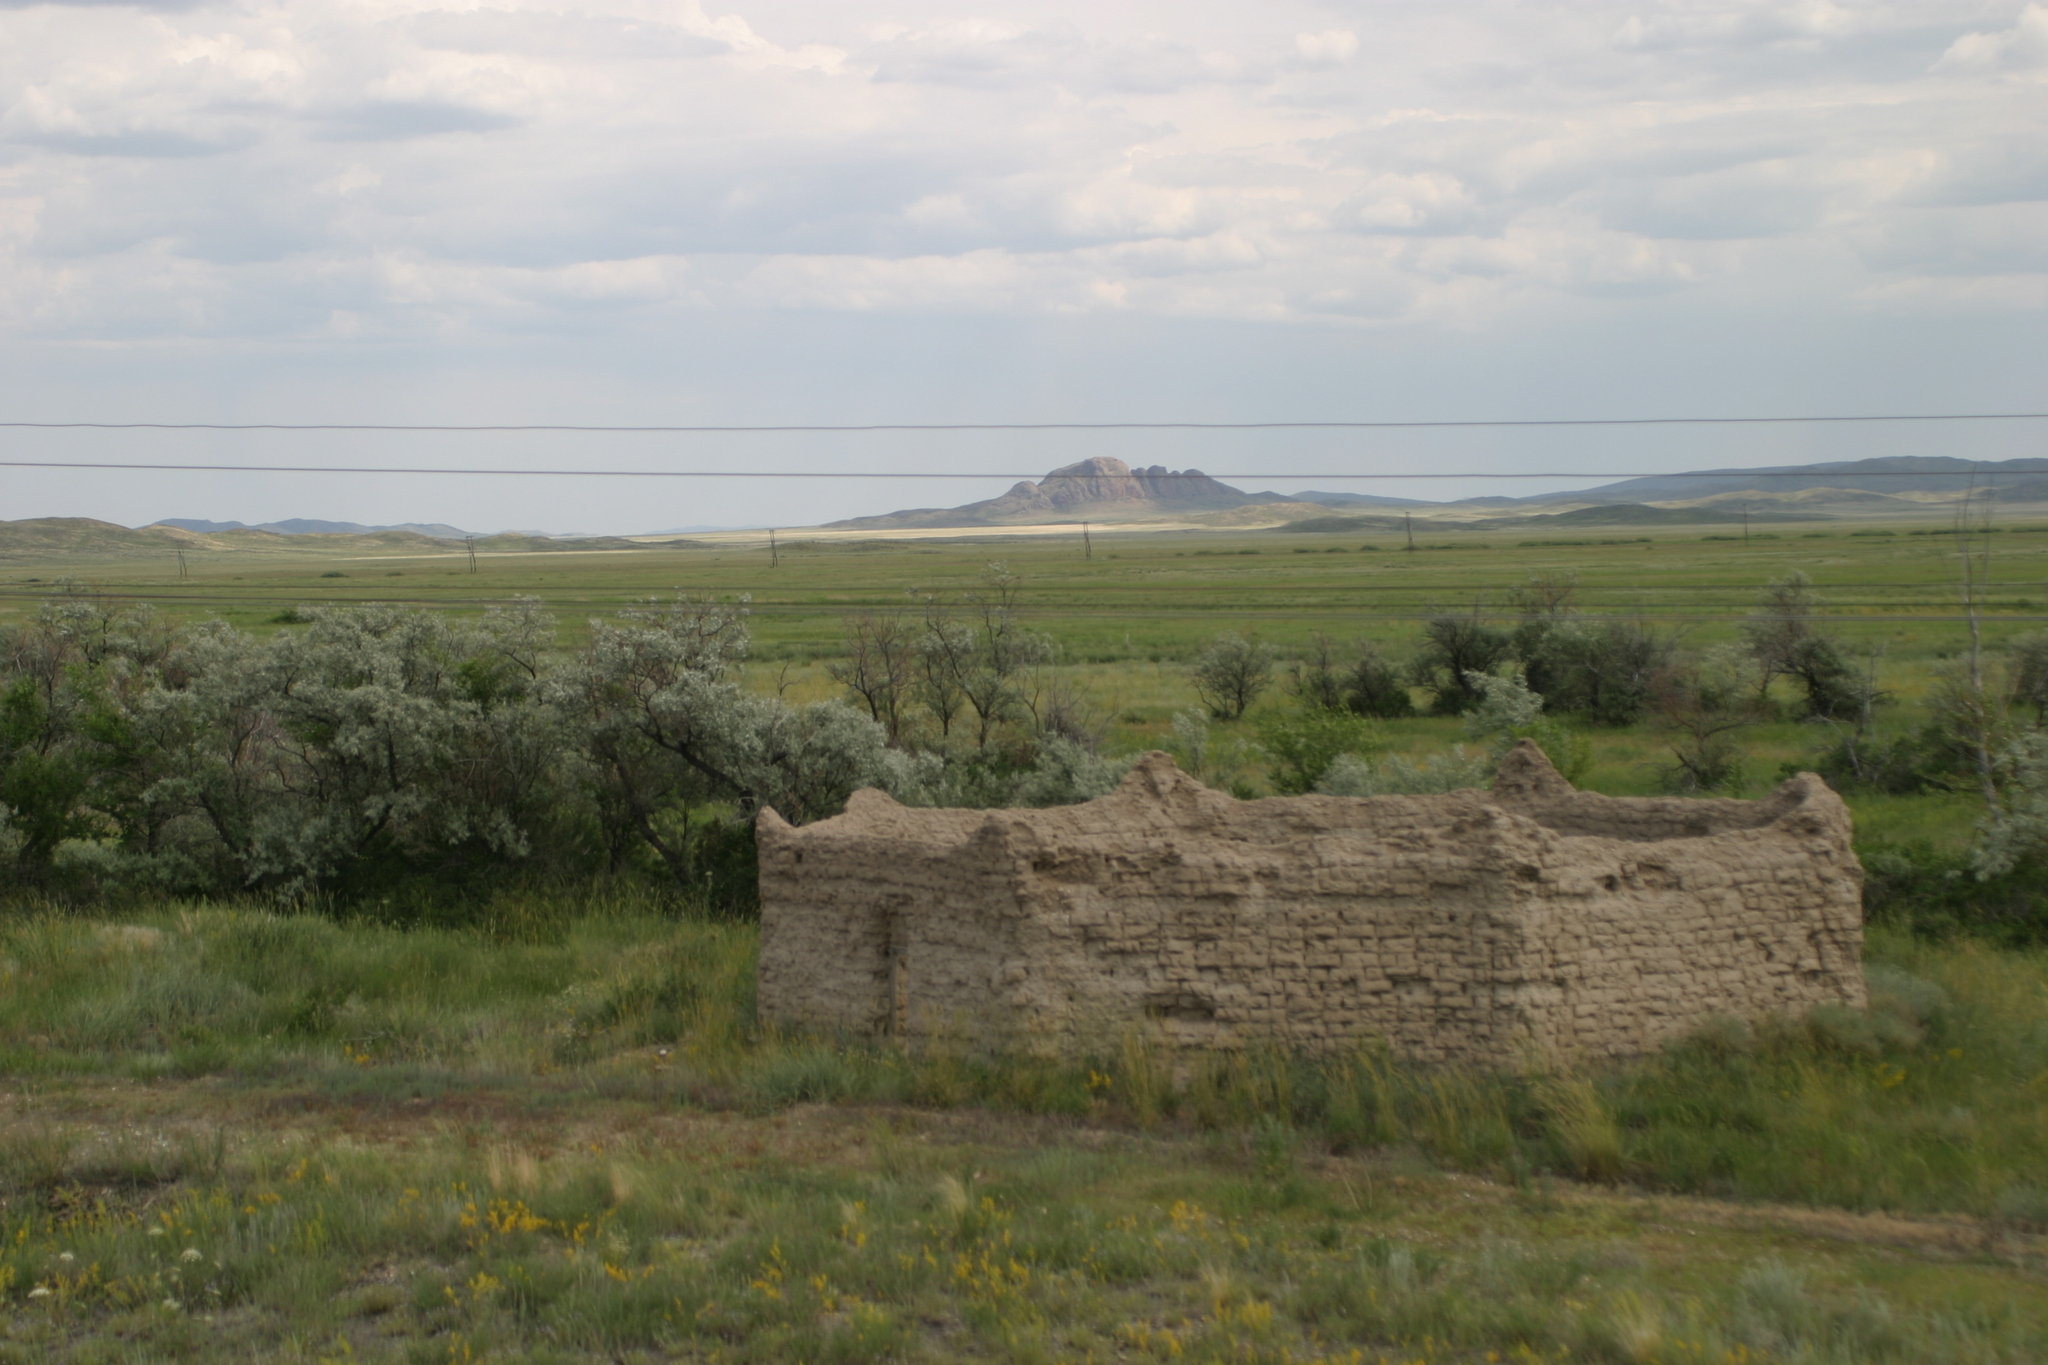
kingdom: Plantae
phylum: Tracheophyta
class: Magnoliopsida
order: Rosales
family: Elaeagnaceae
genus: Elaeagnus
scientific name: Elaeagnus angustifolia
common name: Russian olive
